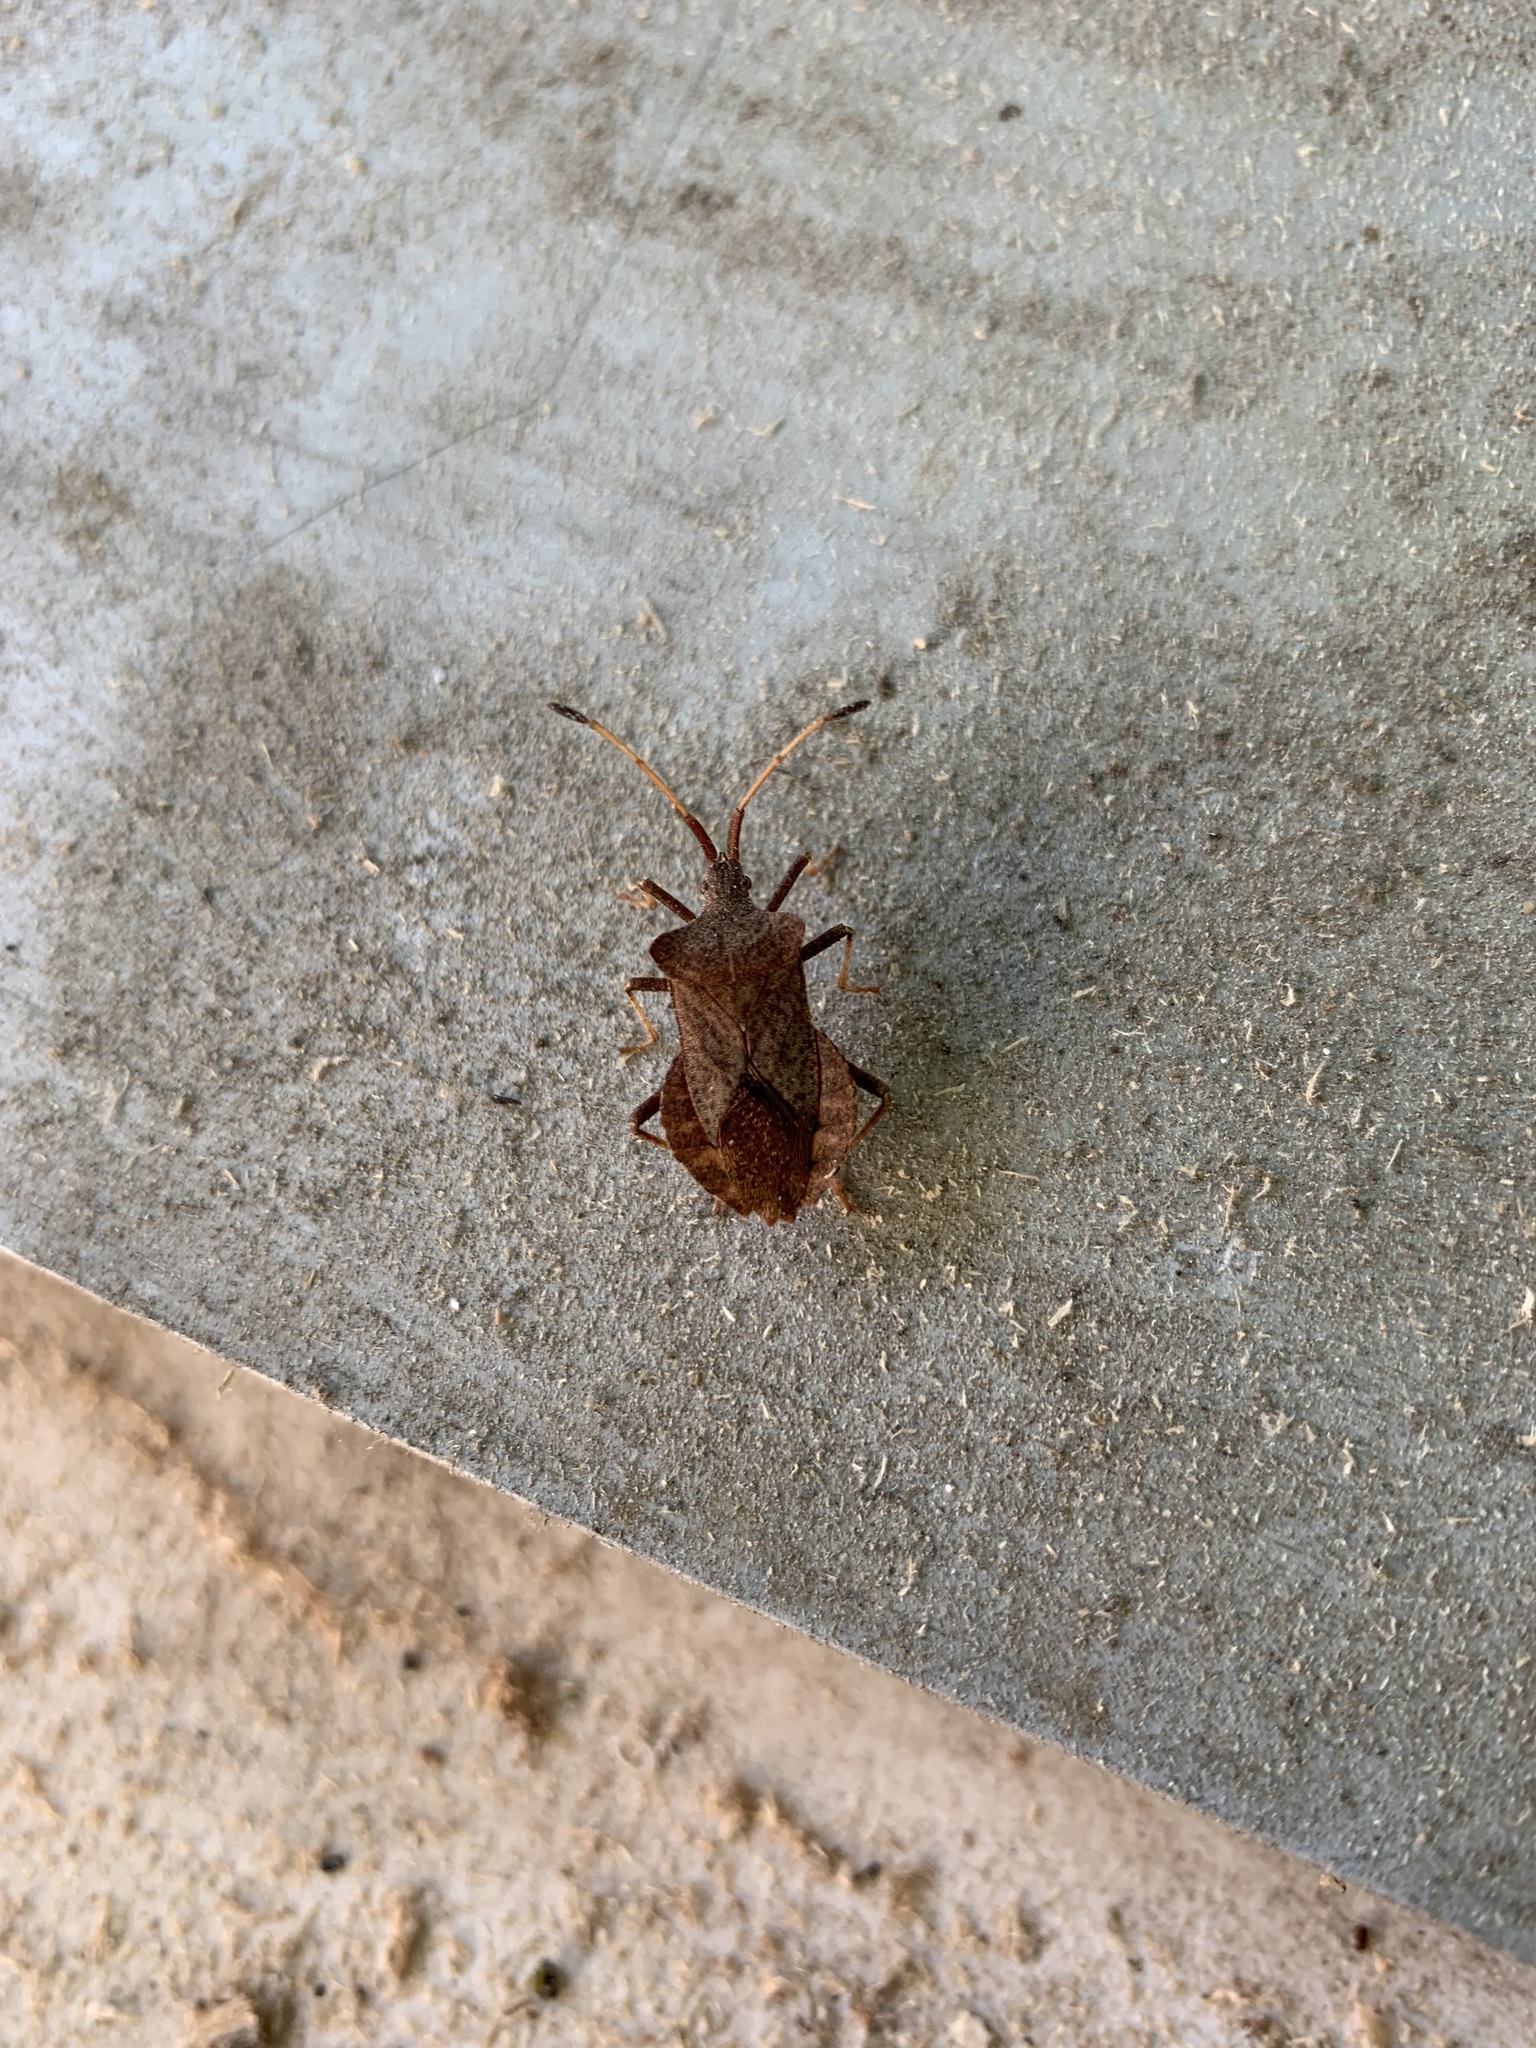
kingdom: Animalia
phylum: Arthropoda
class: Insecta
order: Hemiptera
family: Coreidae
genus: Coreus
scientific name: Coreus marginatus
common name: Dock bug
